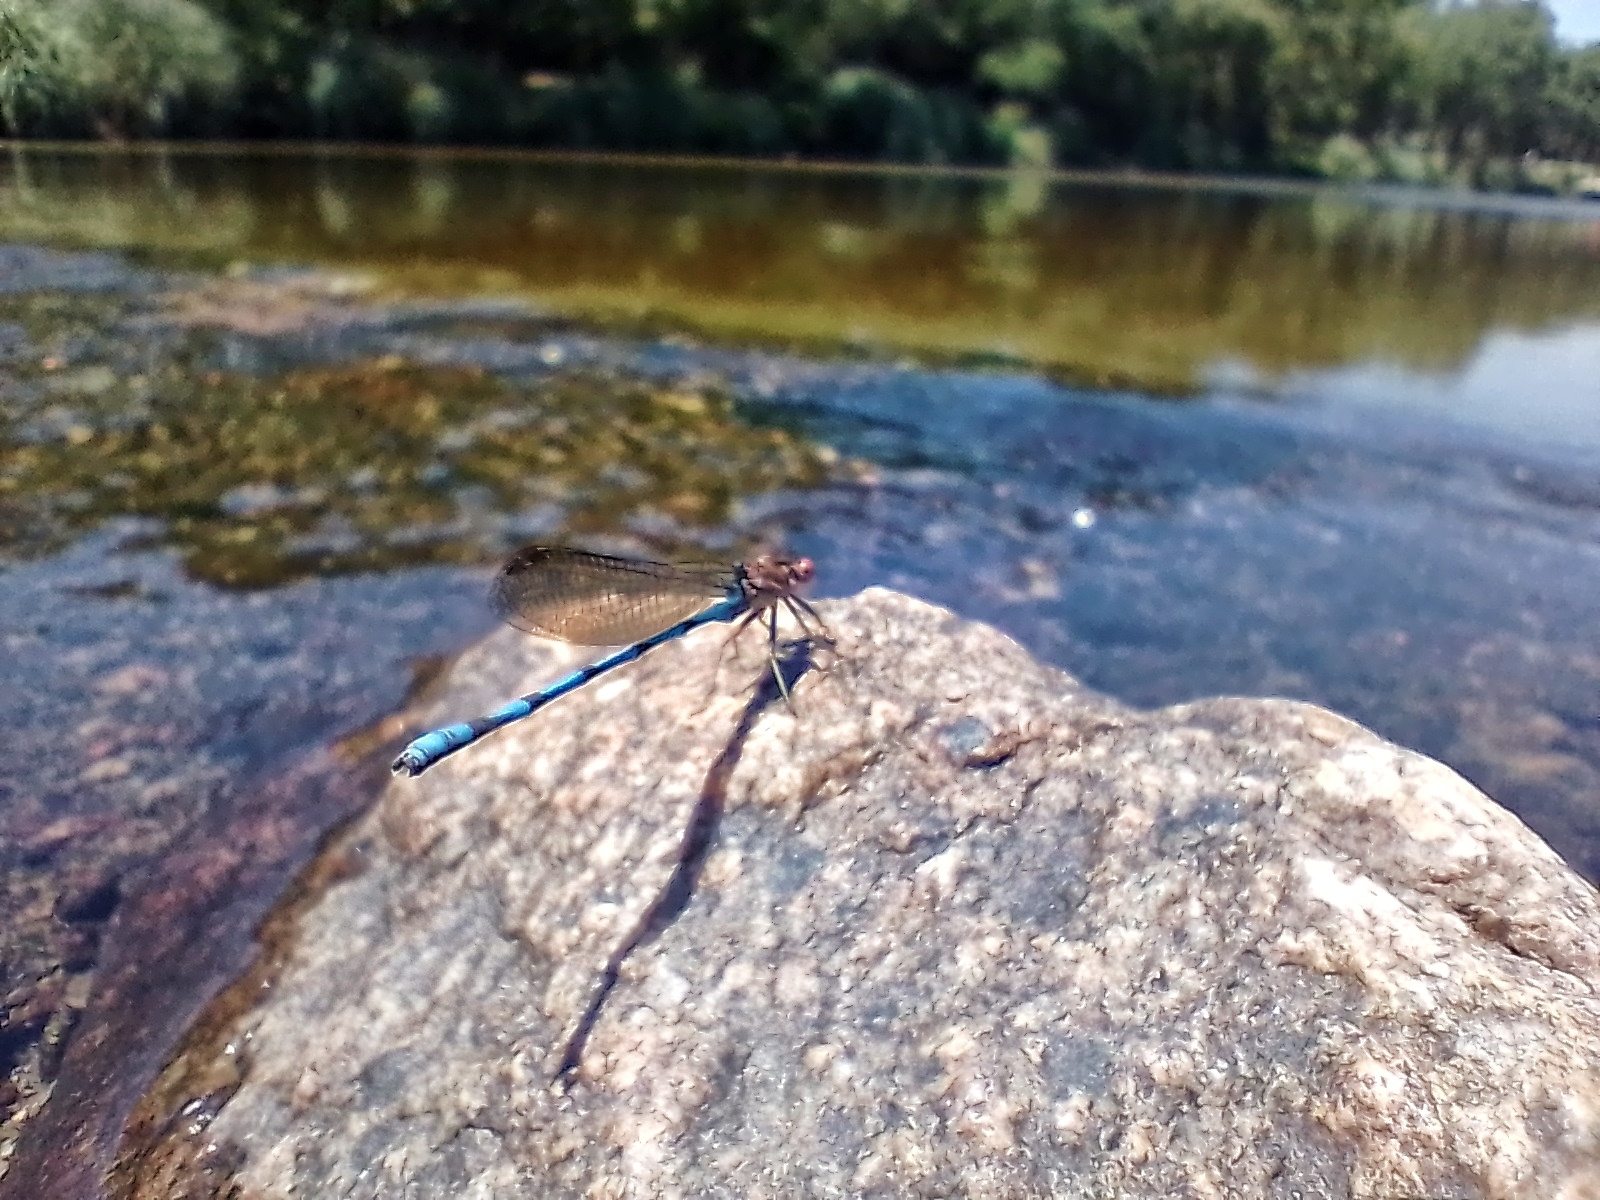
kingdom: Animalia
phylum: Arthropoda
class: Insecta
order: Odonata
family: Coenagrionidae
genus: Argia
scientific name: Argia joergenseni
